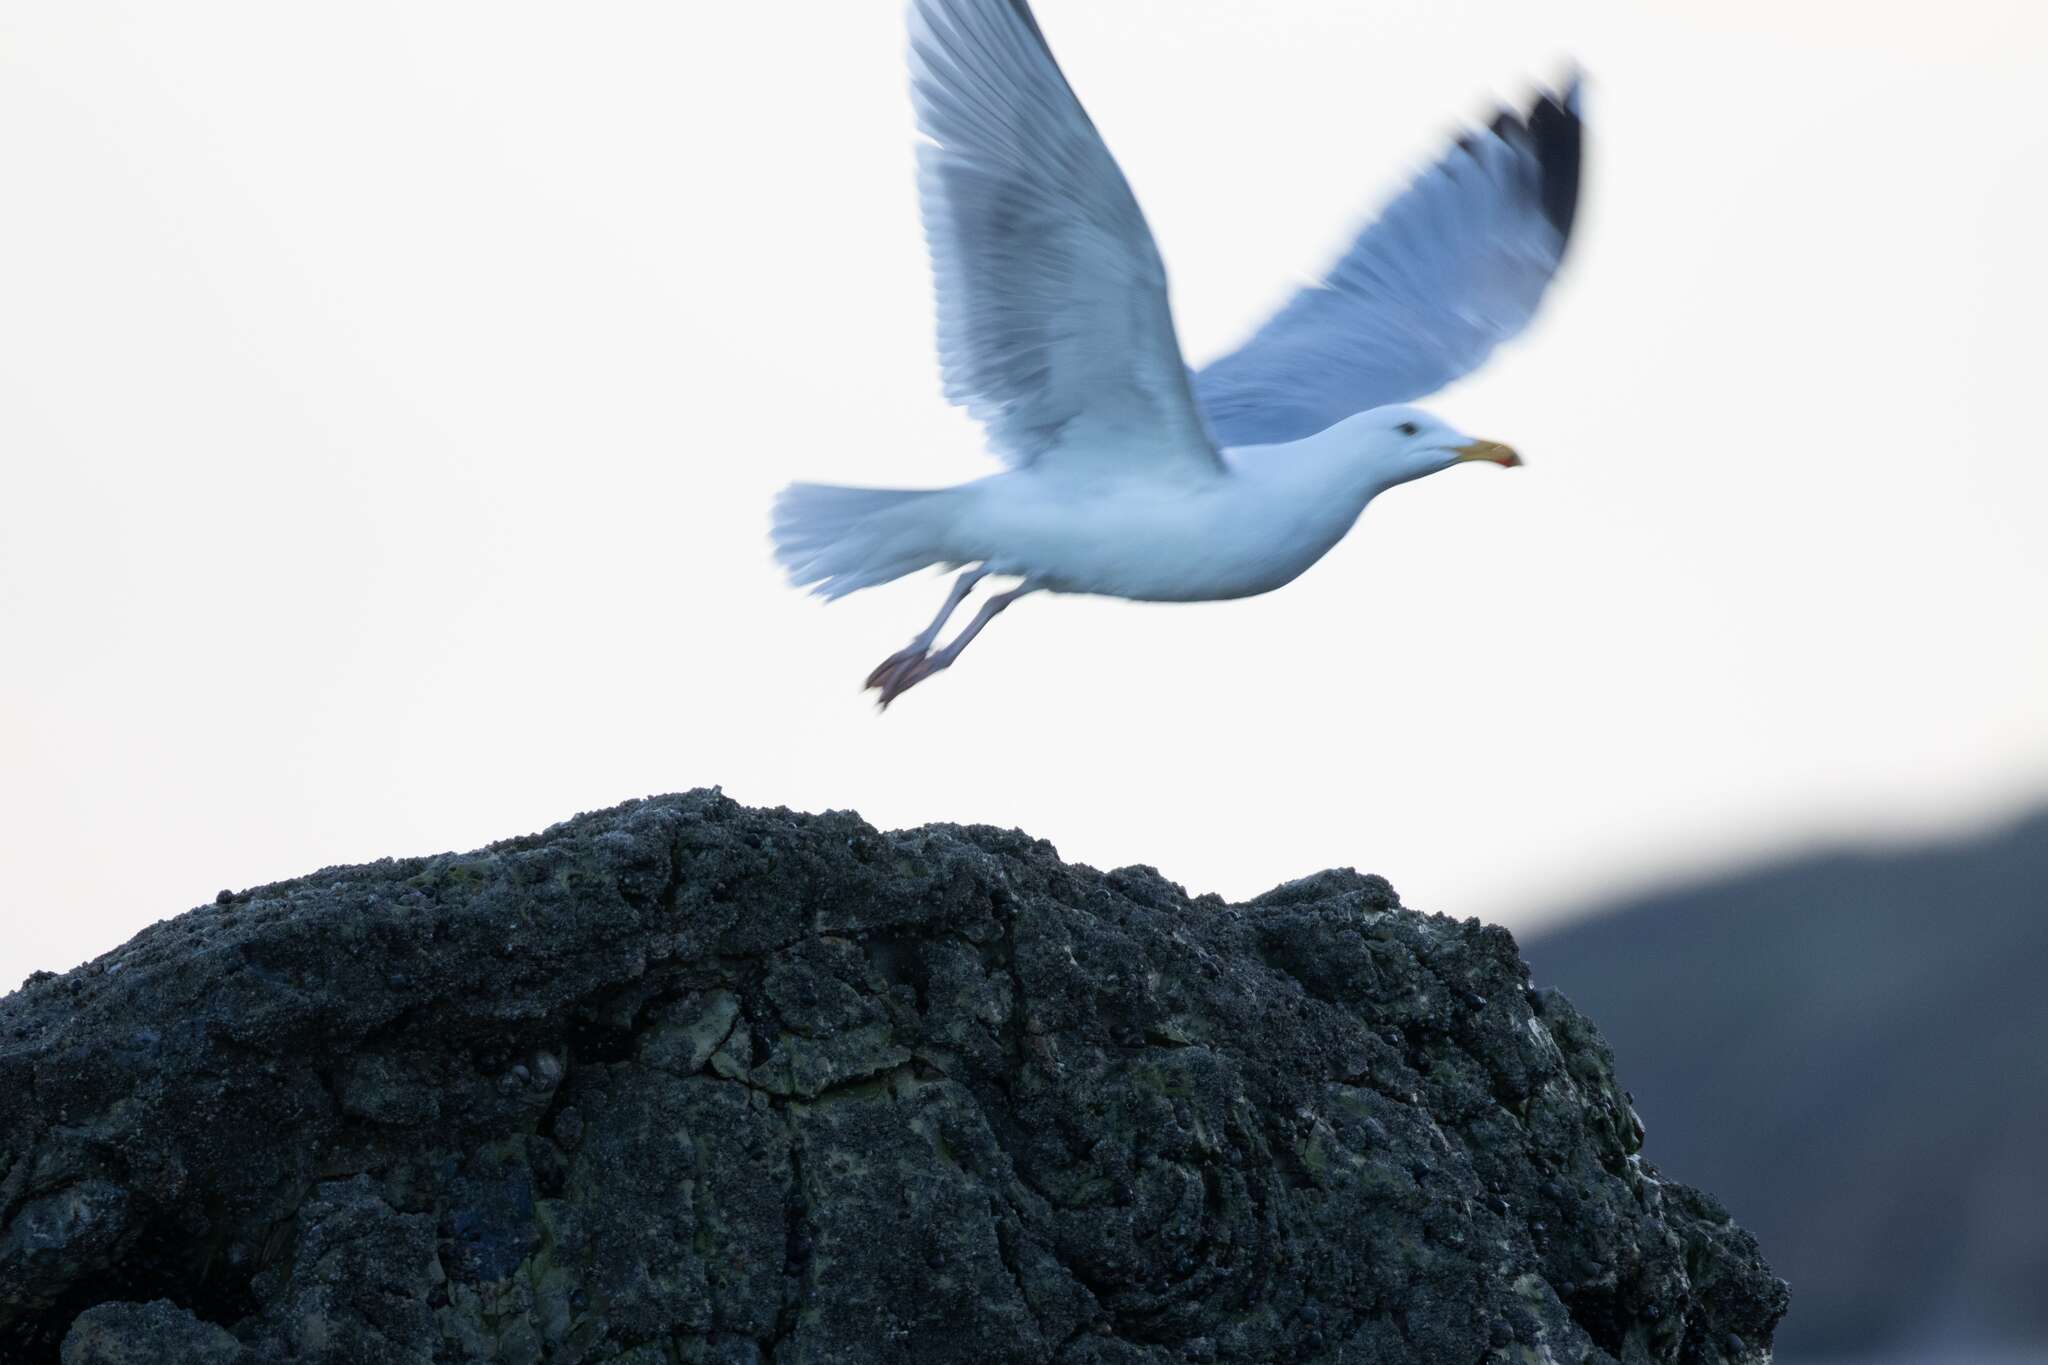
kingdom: Animalia
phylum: Chordata
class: Aves
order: Charadriiformes
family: Laridae
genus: Larus
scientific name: Larus argentatus
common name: Herring gull
